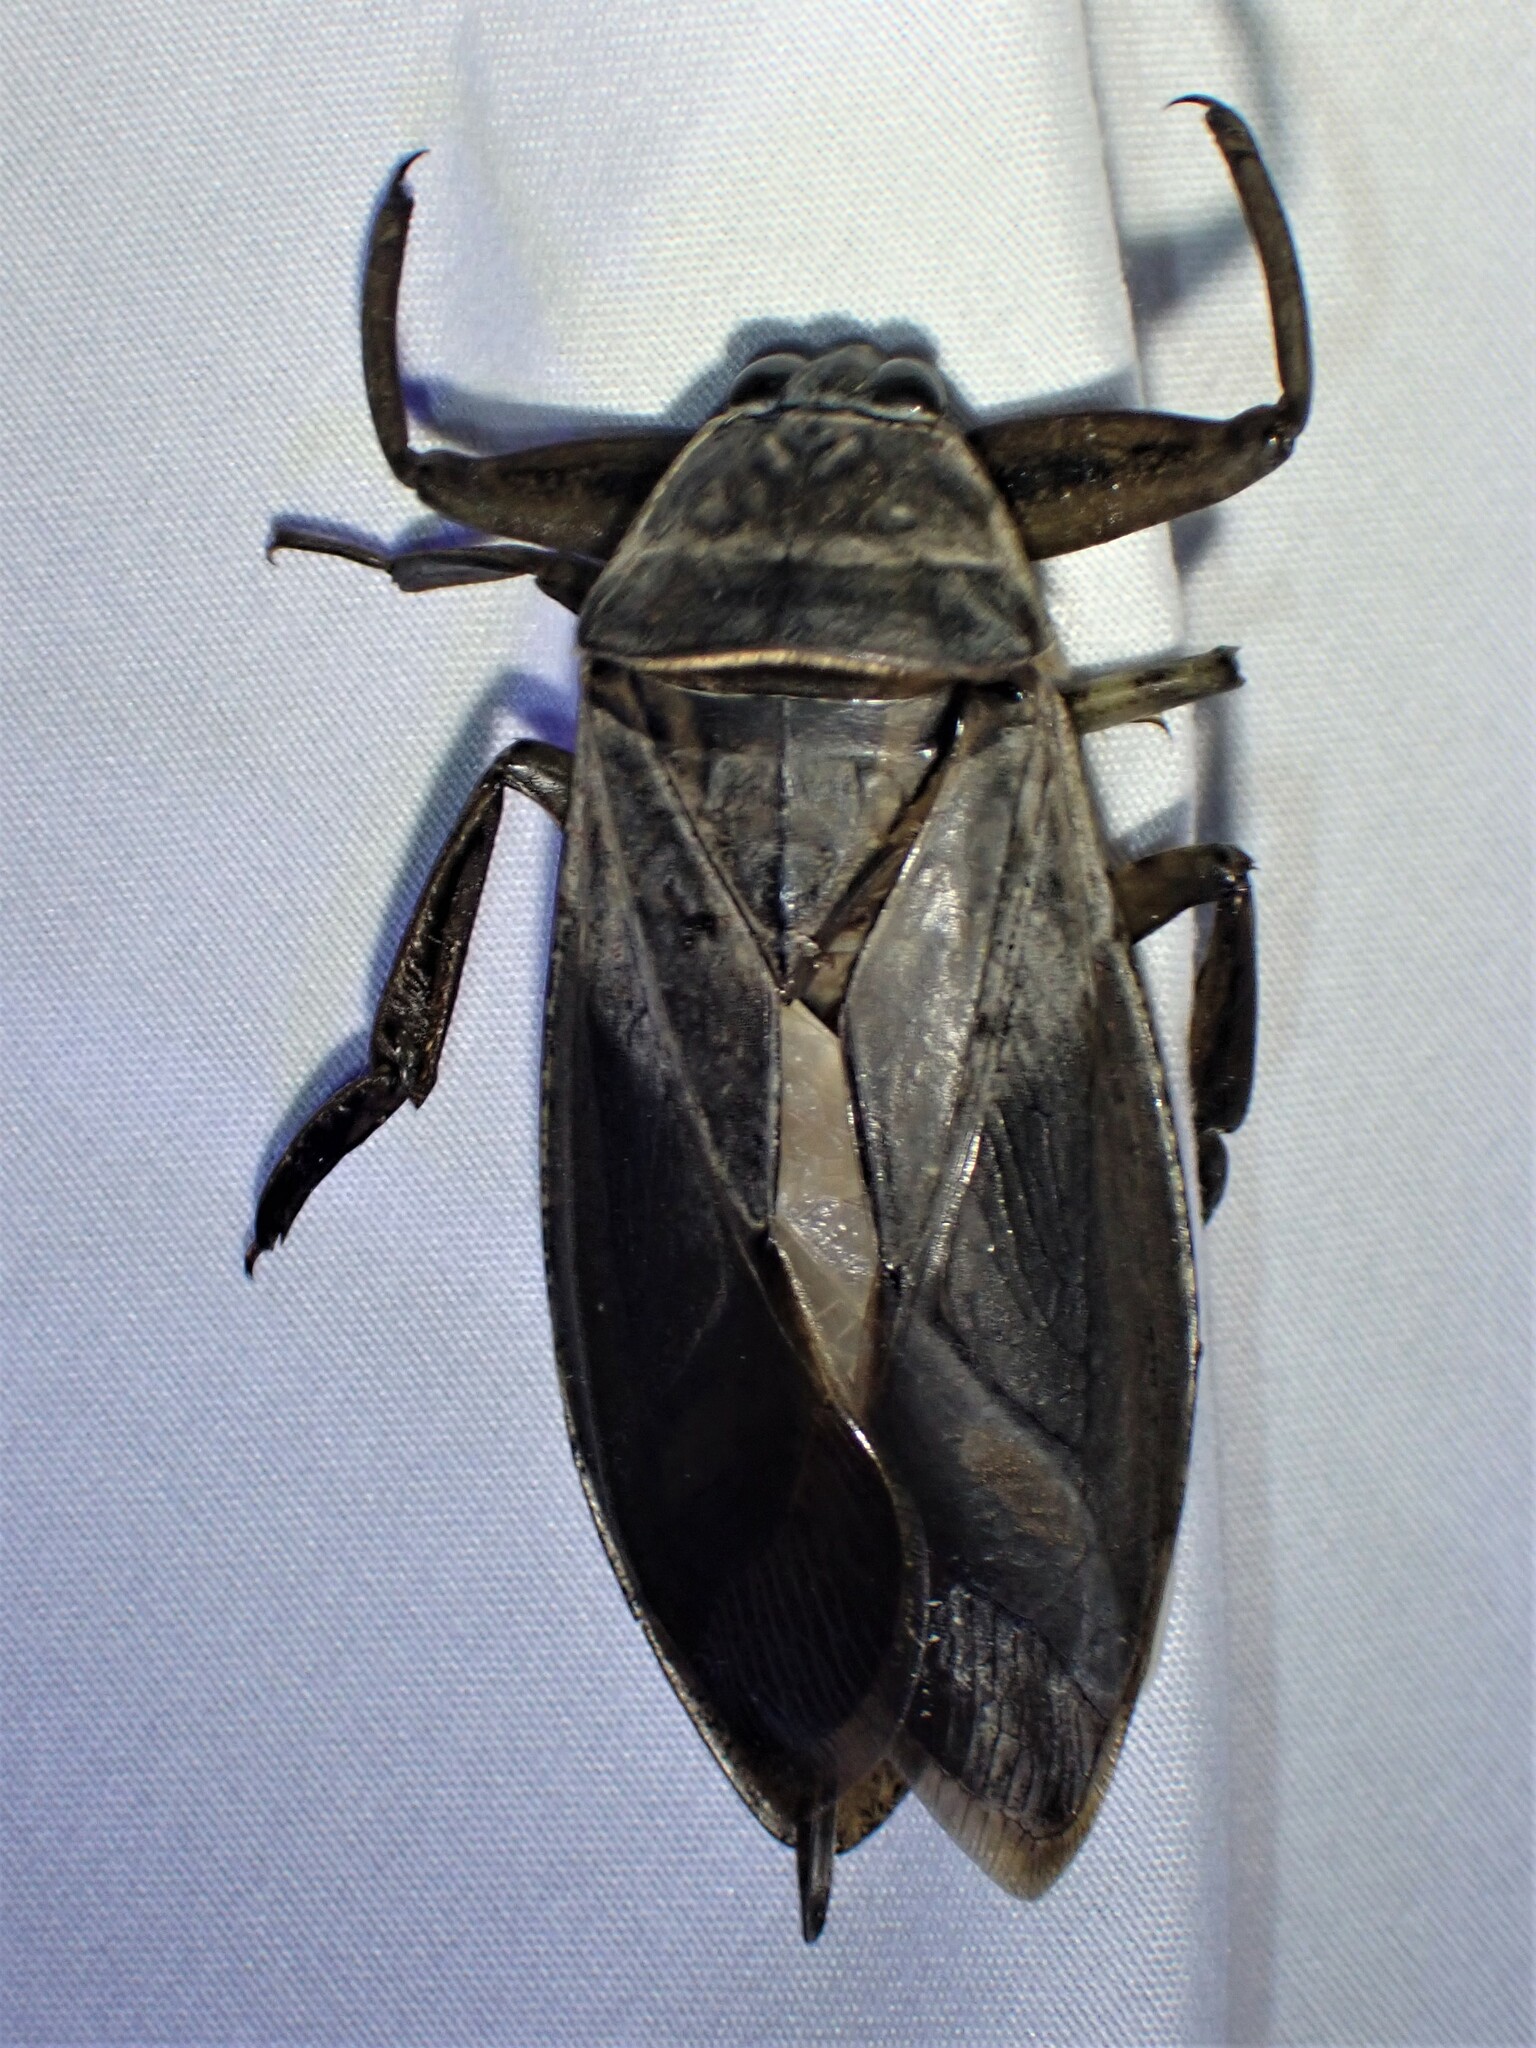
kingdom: Animalia
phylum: Arthropoda
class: Insecta
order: Hemiptera
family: Belostomatidae
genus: Lethocerus
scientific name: Lethocerus americanus
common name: Giant water bug
